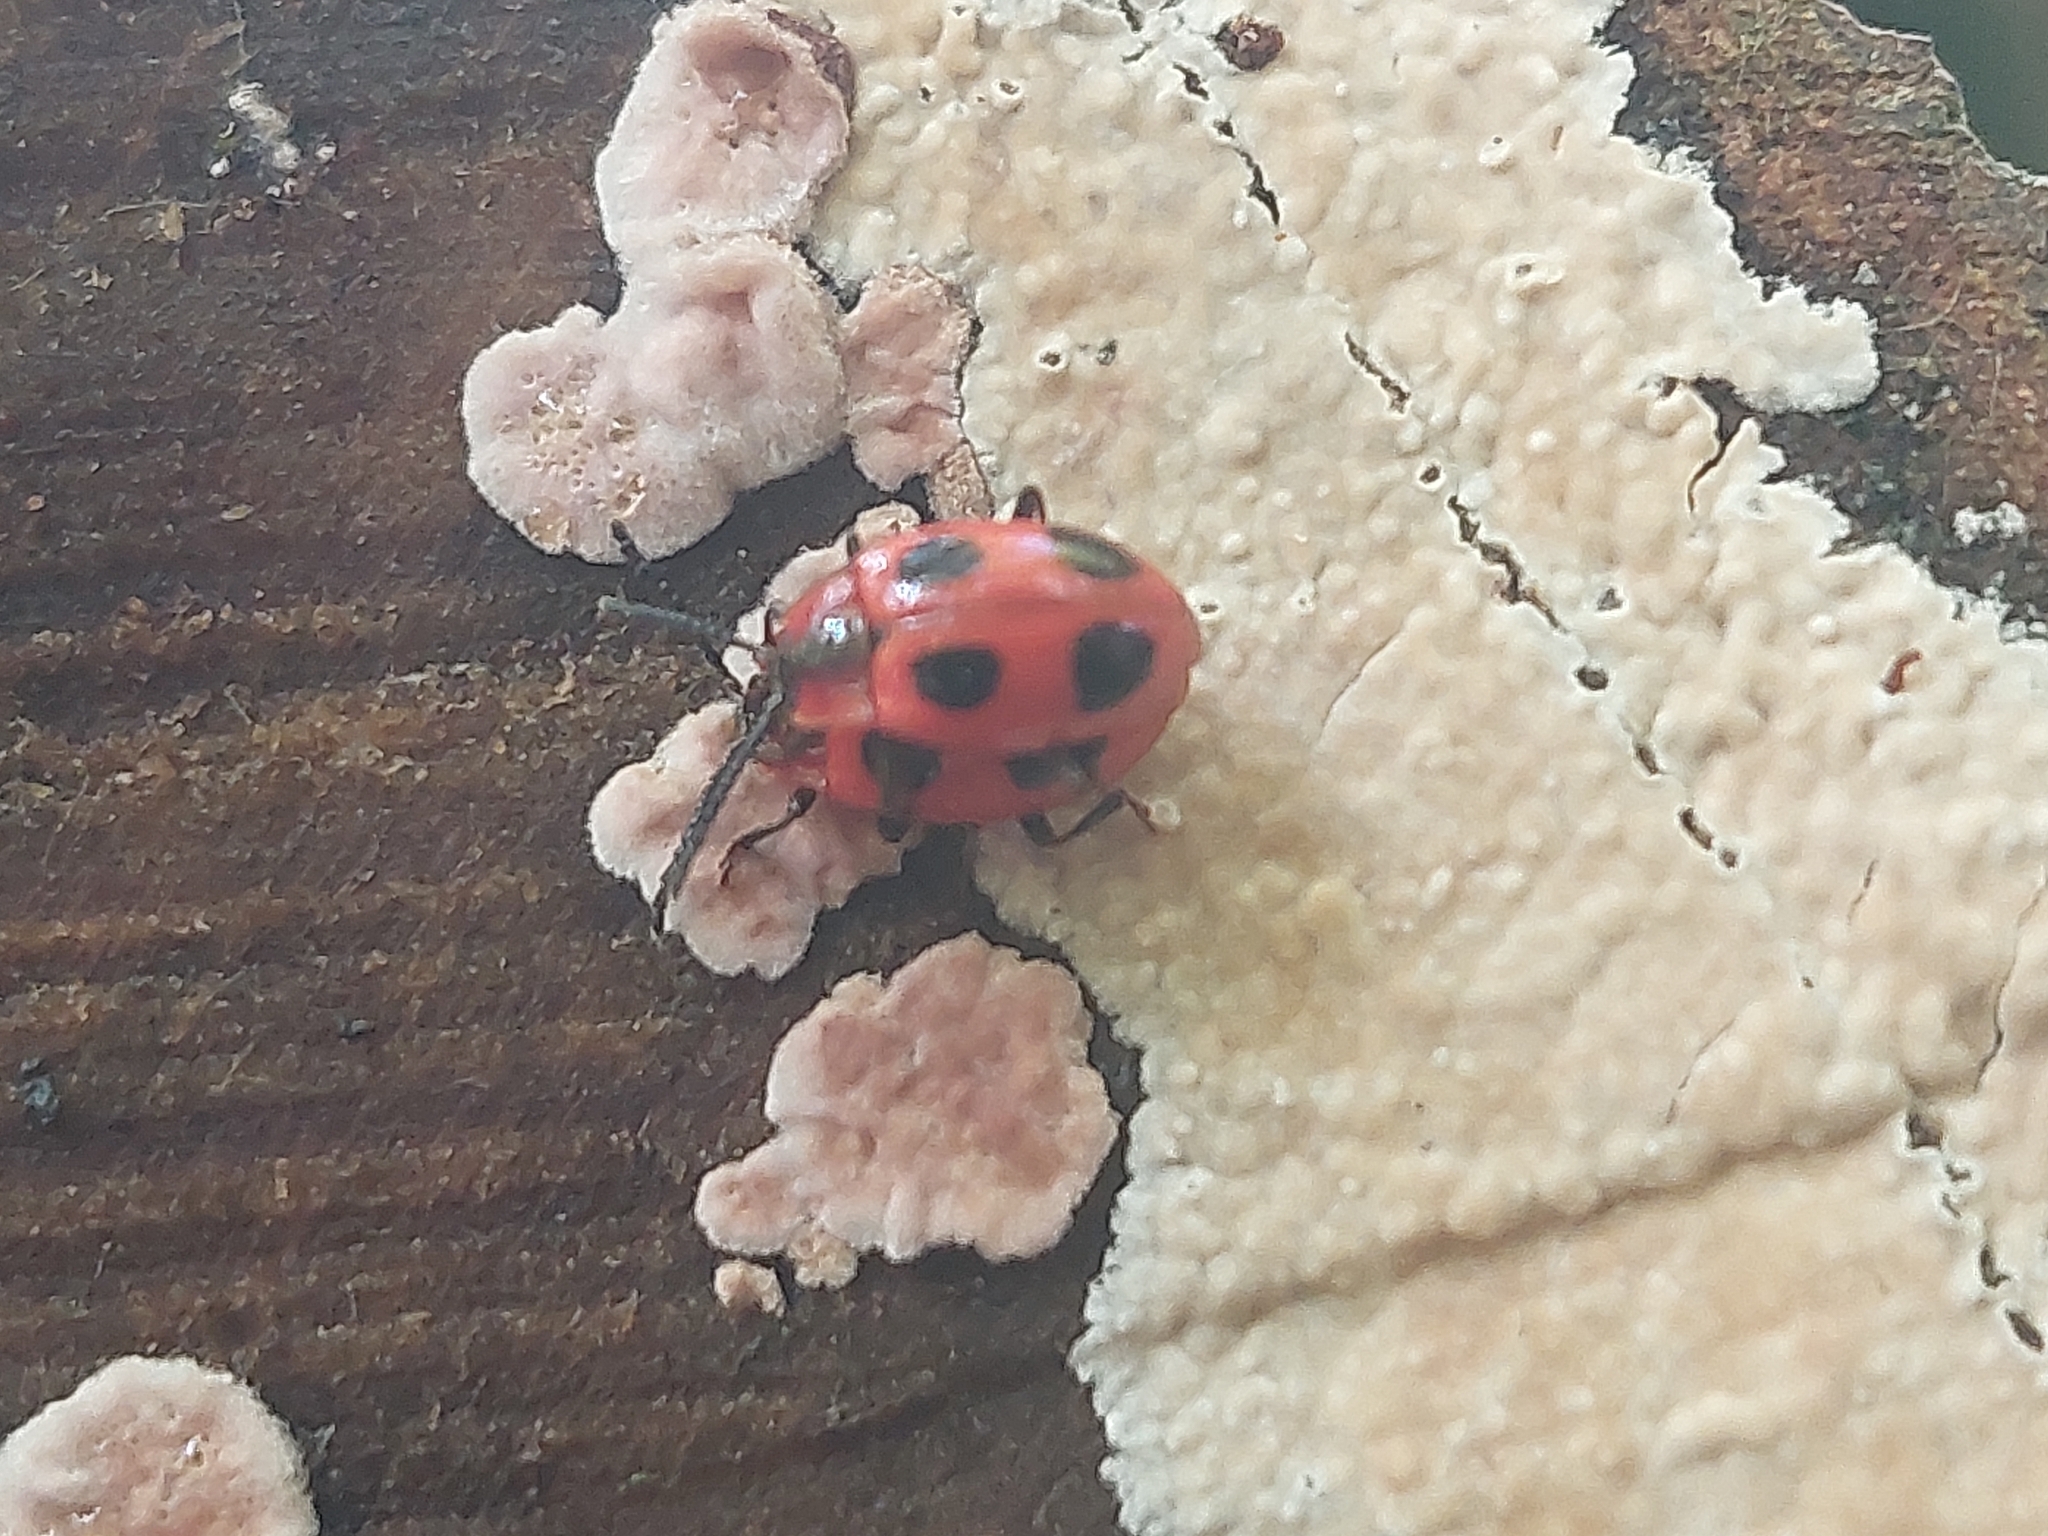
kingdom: Animalia
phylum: Arthropoda
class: Insecta
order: Coleoptera
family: Endomychidae
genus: Endomychus
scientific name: Endomychus coccineus
